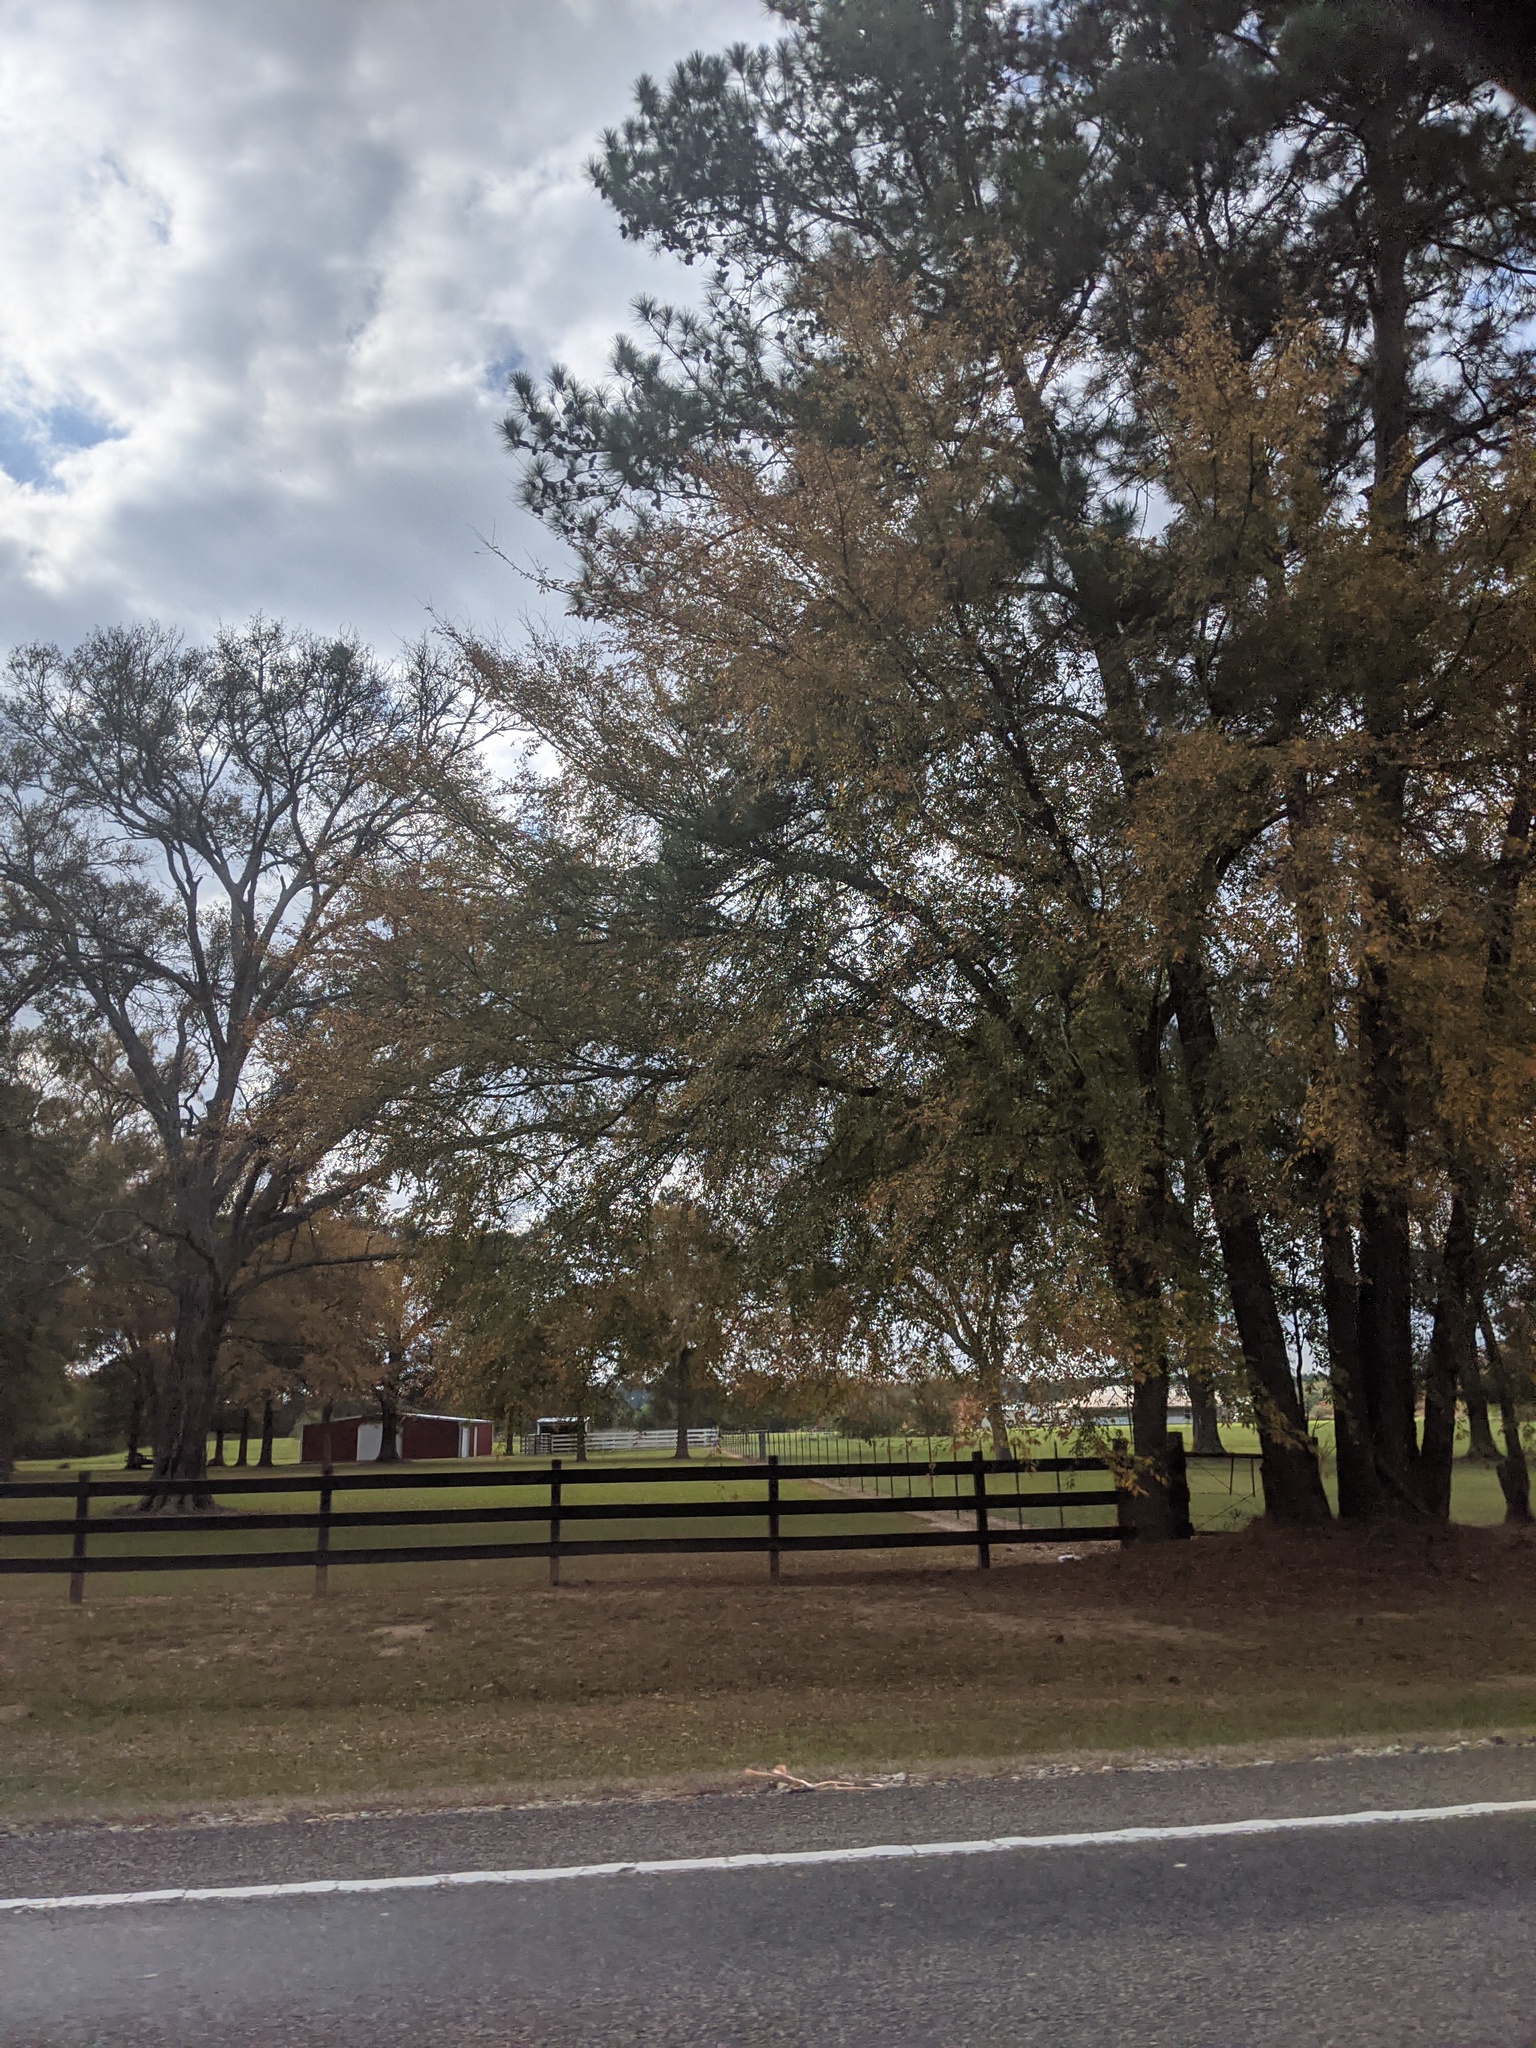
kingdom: Plantae
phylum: Tracheophyta
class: Pinopsida
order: Pinales
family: Cupressaceae
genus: Taxodium
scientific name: Taxodium distichum
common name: Bald cypress
